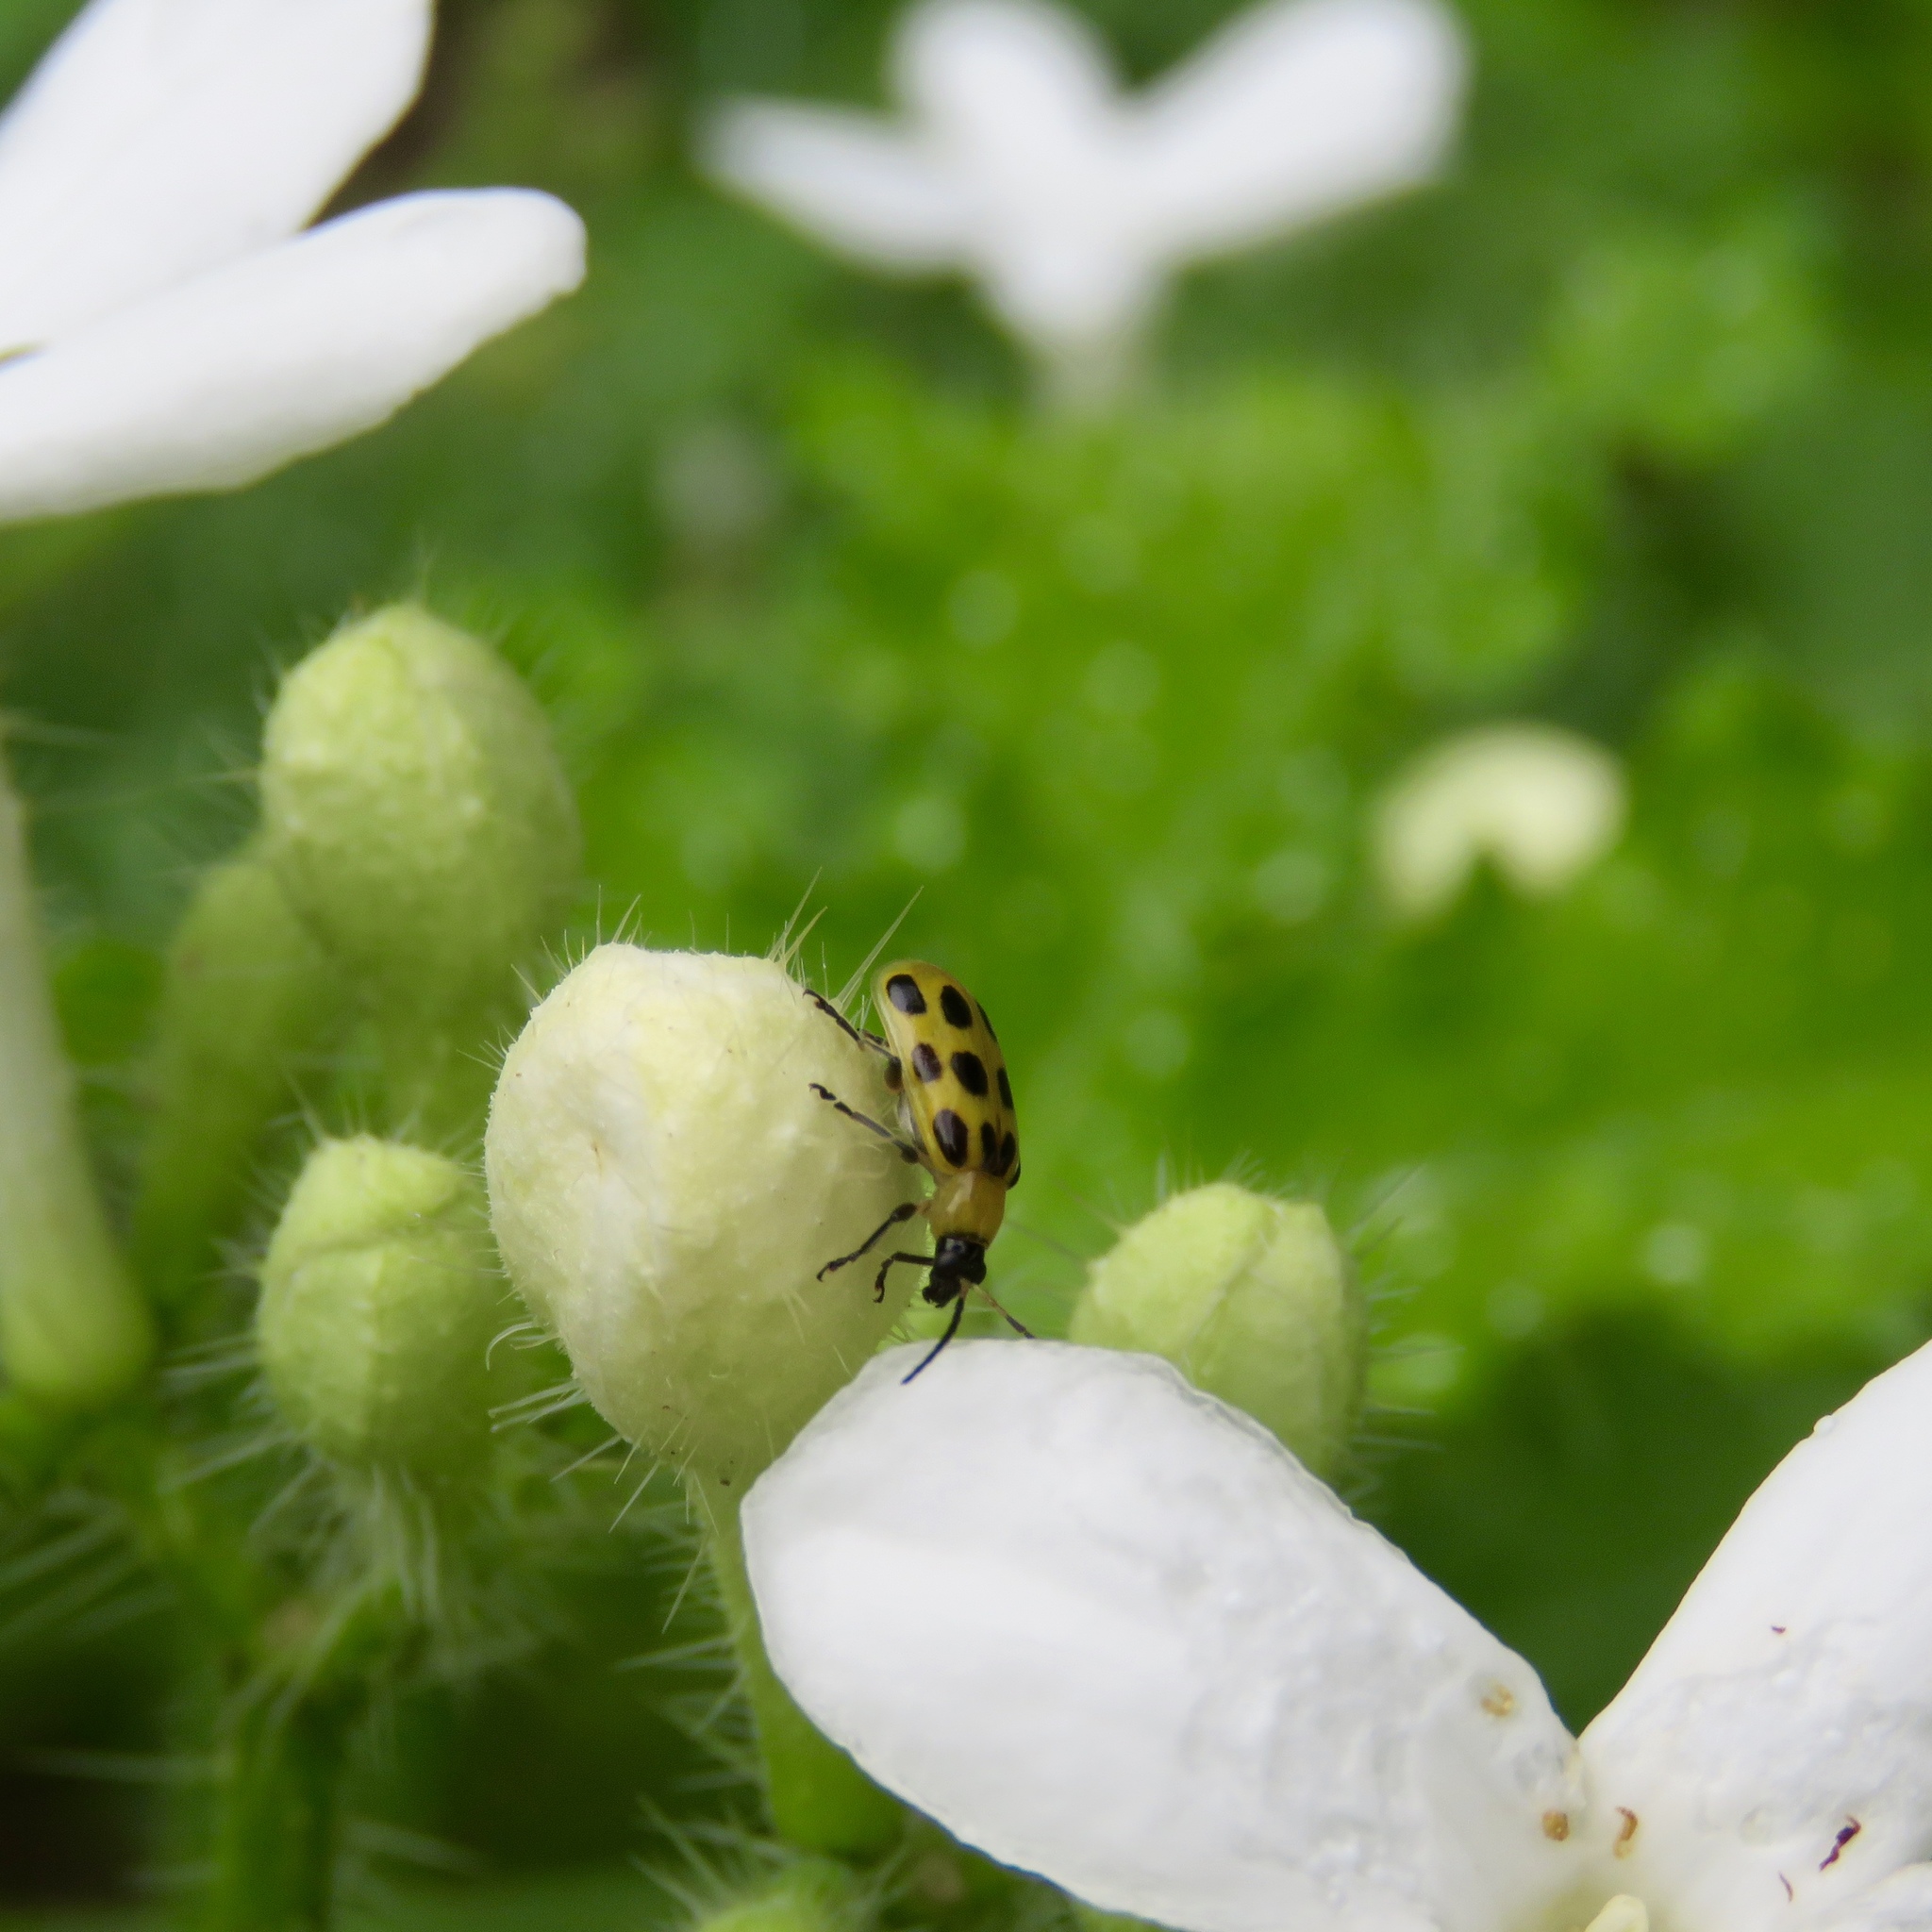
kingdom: Animalia
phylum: Arthropoda
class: Insecta
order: Coleoptera
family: Chrysomelidae
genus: Diabrotica
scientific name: Diabrotica undecimpunctata
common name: Spotted cucumber beetle
